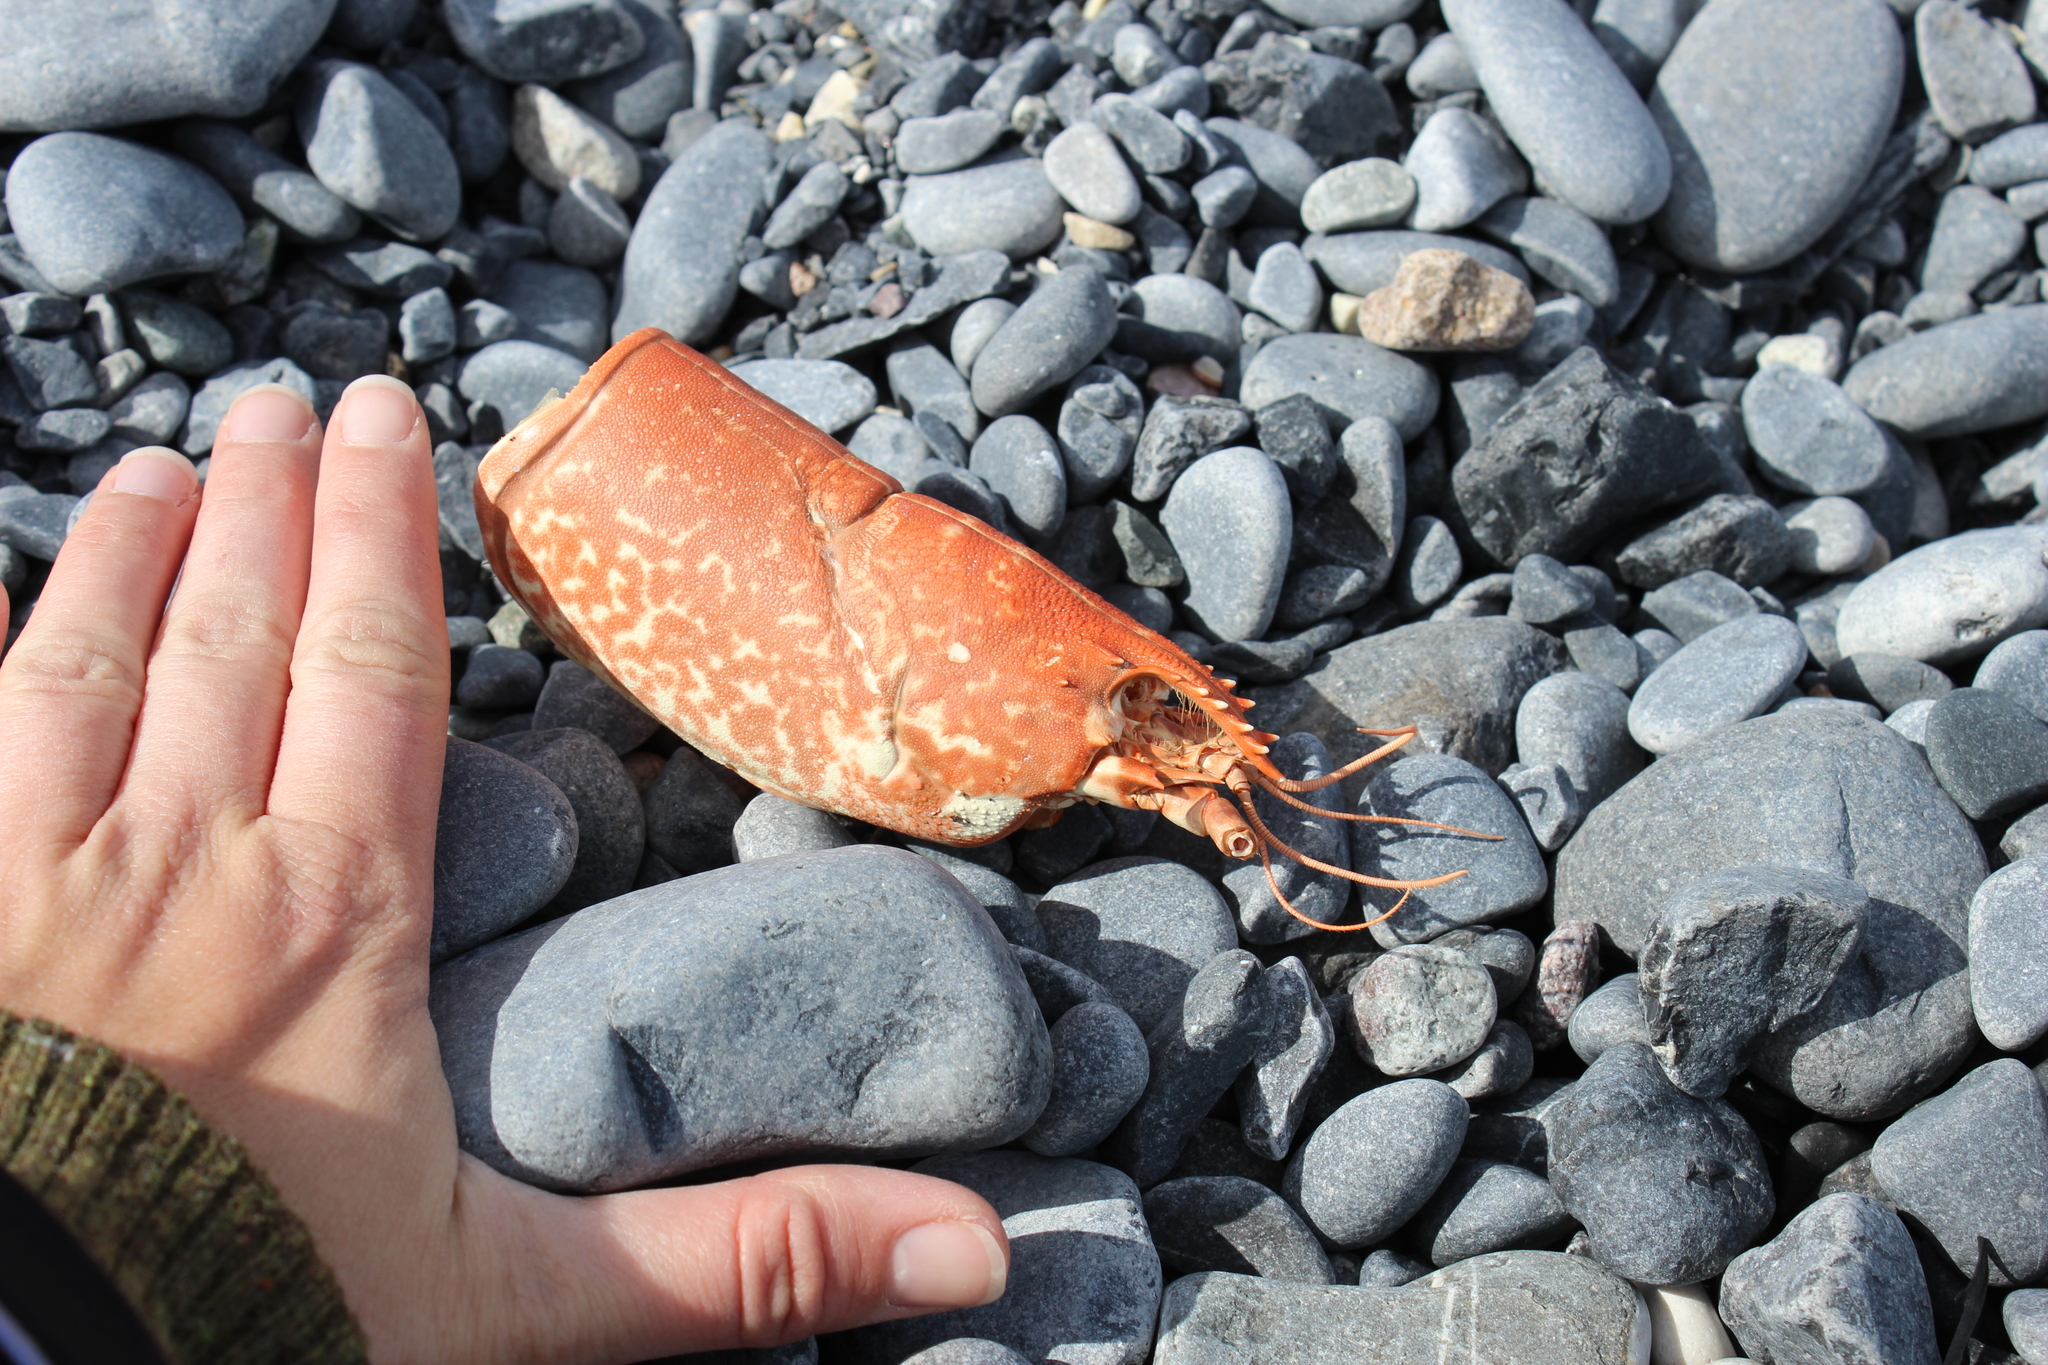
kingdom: Animalia
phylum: Arthropoda
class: Malacostraca
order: Decapoda
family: Nephropidae
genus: Homarus
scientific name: Homarus gammarus
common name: European lobster
